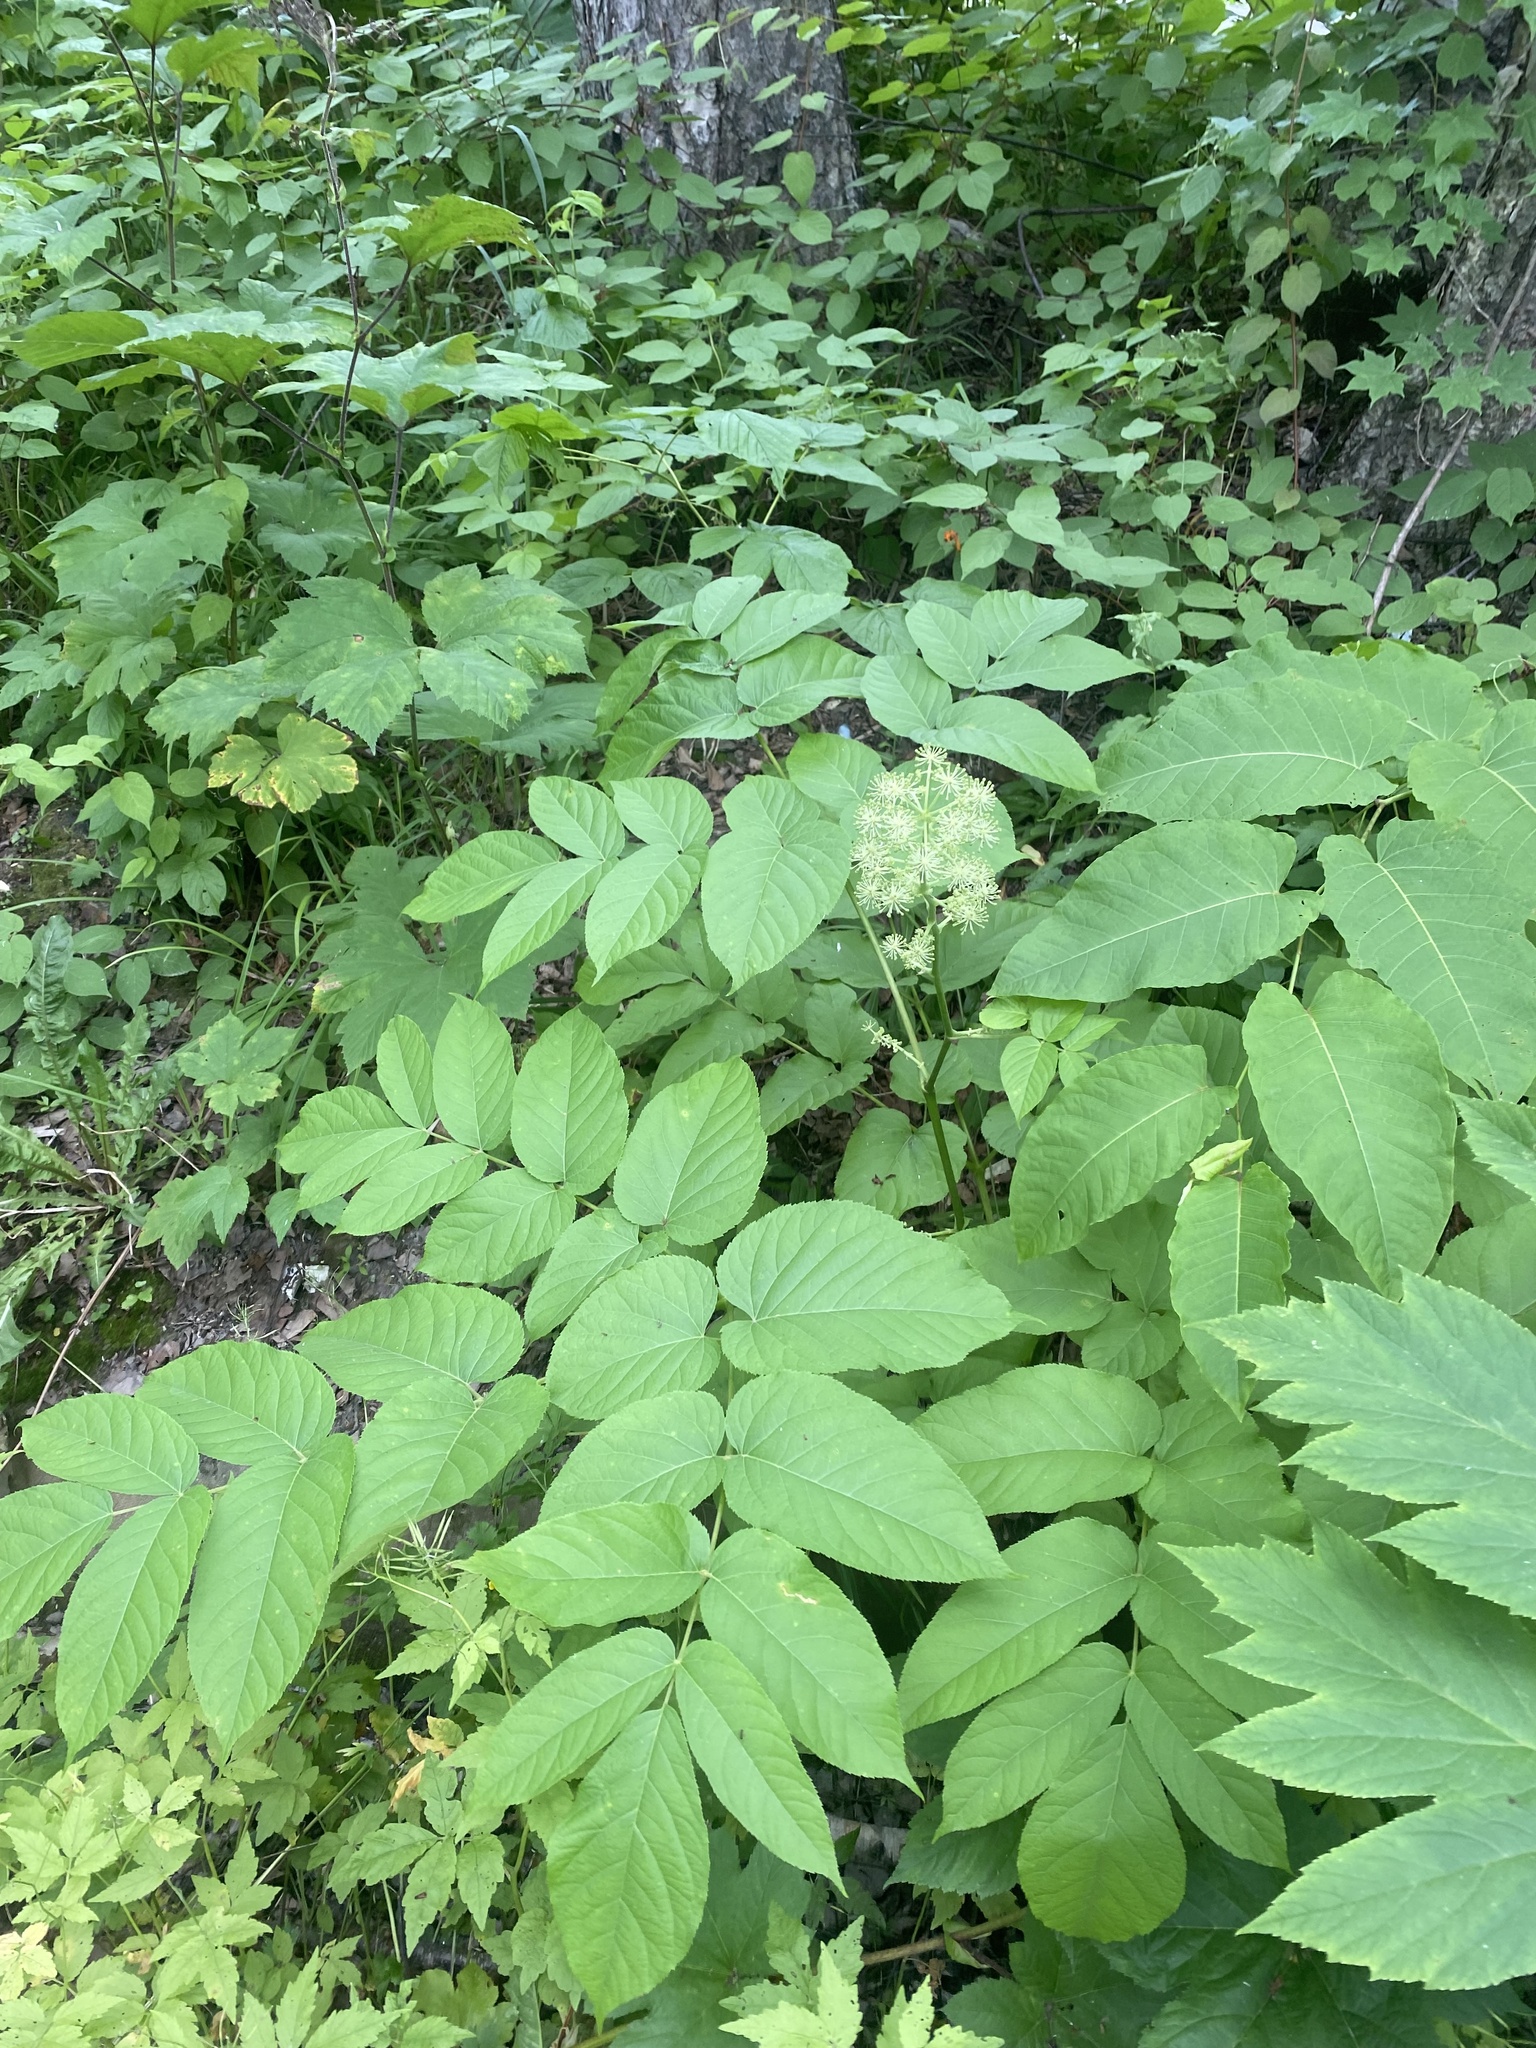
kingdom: Plantae
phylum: Tracheophyta
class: Magnoliopsida
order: Apiales
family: Araliaceae
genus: Aralia
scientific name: Aralia cordata
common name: Udo
